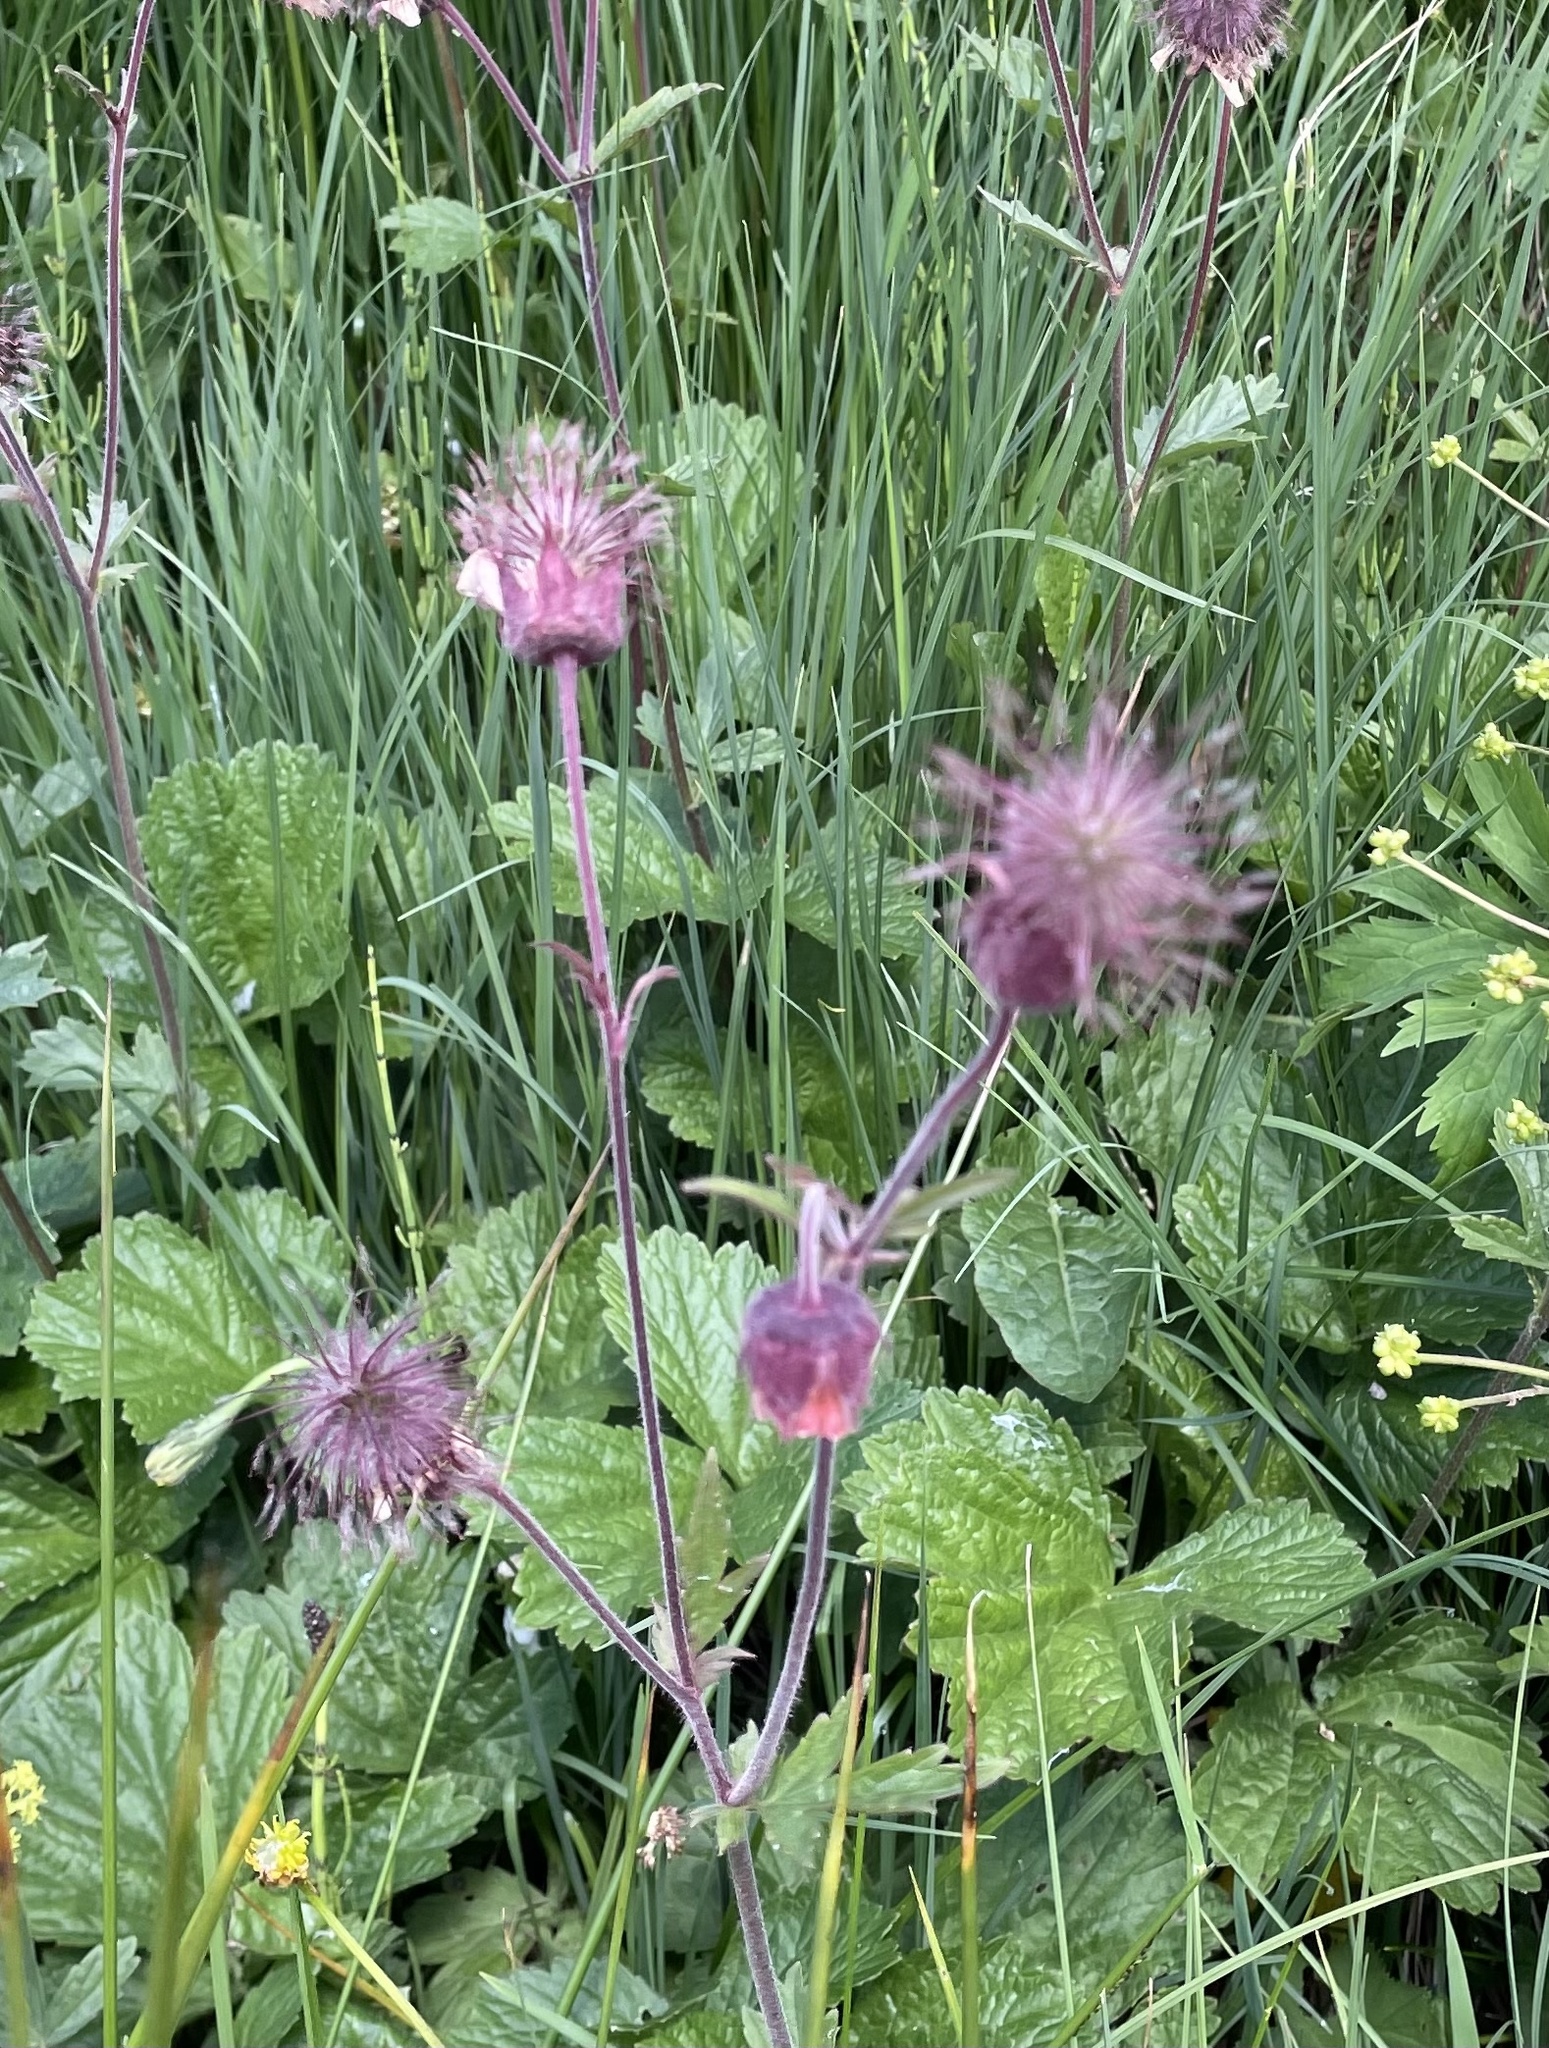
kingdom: Plantae
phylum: Tracheophyta
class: Magnoliopsida
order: Rosales
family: Rosaceae
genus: Geum
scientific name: Geum rivale
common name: Water avens
